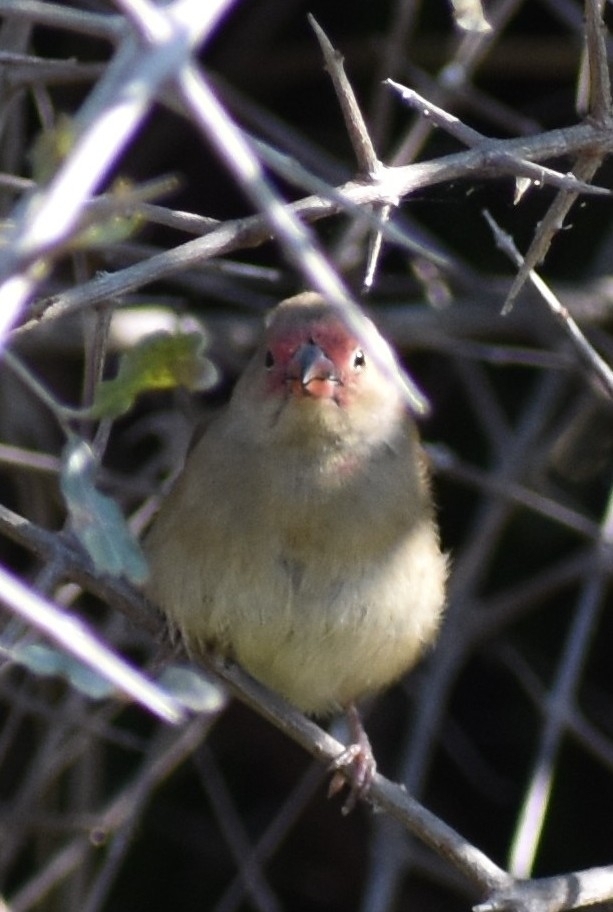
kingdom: Animalia
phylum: Chordata
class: Aves
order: Passeriformes
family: Estrildidae
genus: Lagonosticta
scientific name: Lagonosticta senegala
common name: Red-billed firefinch
